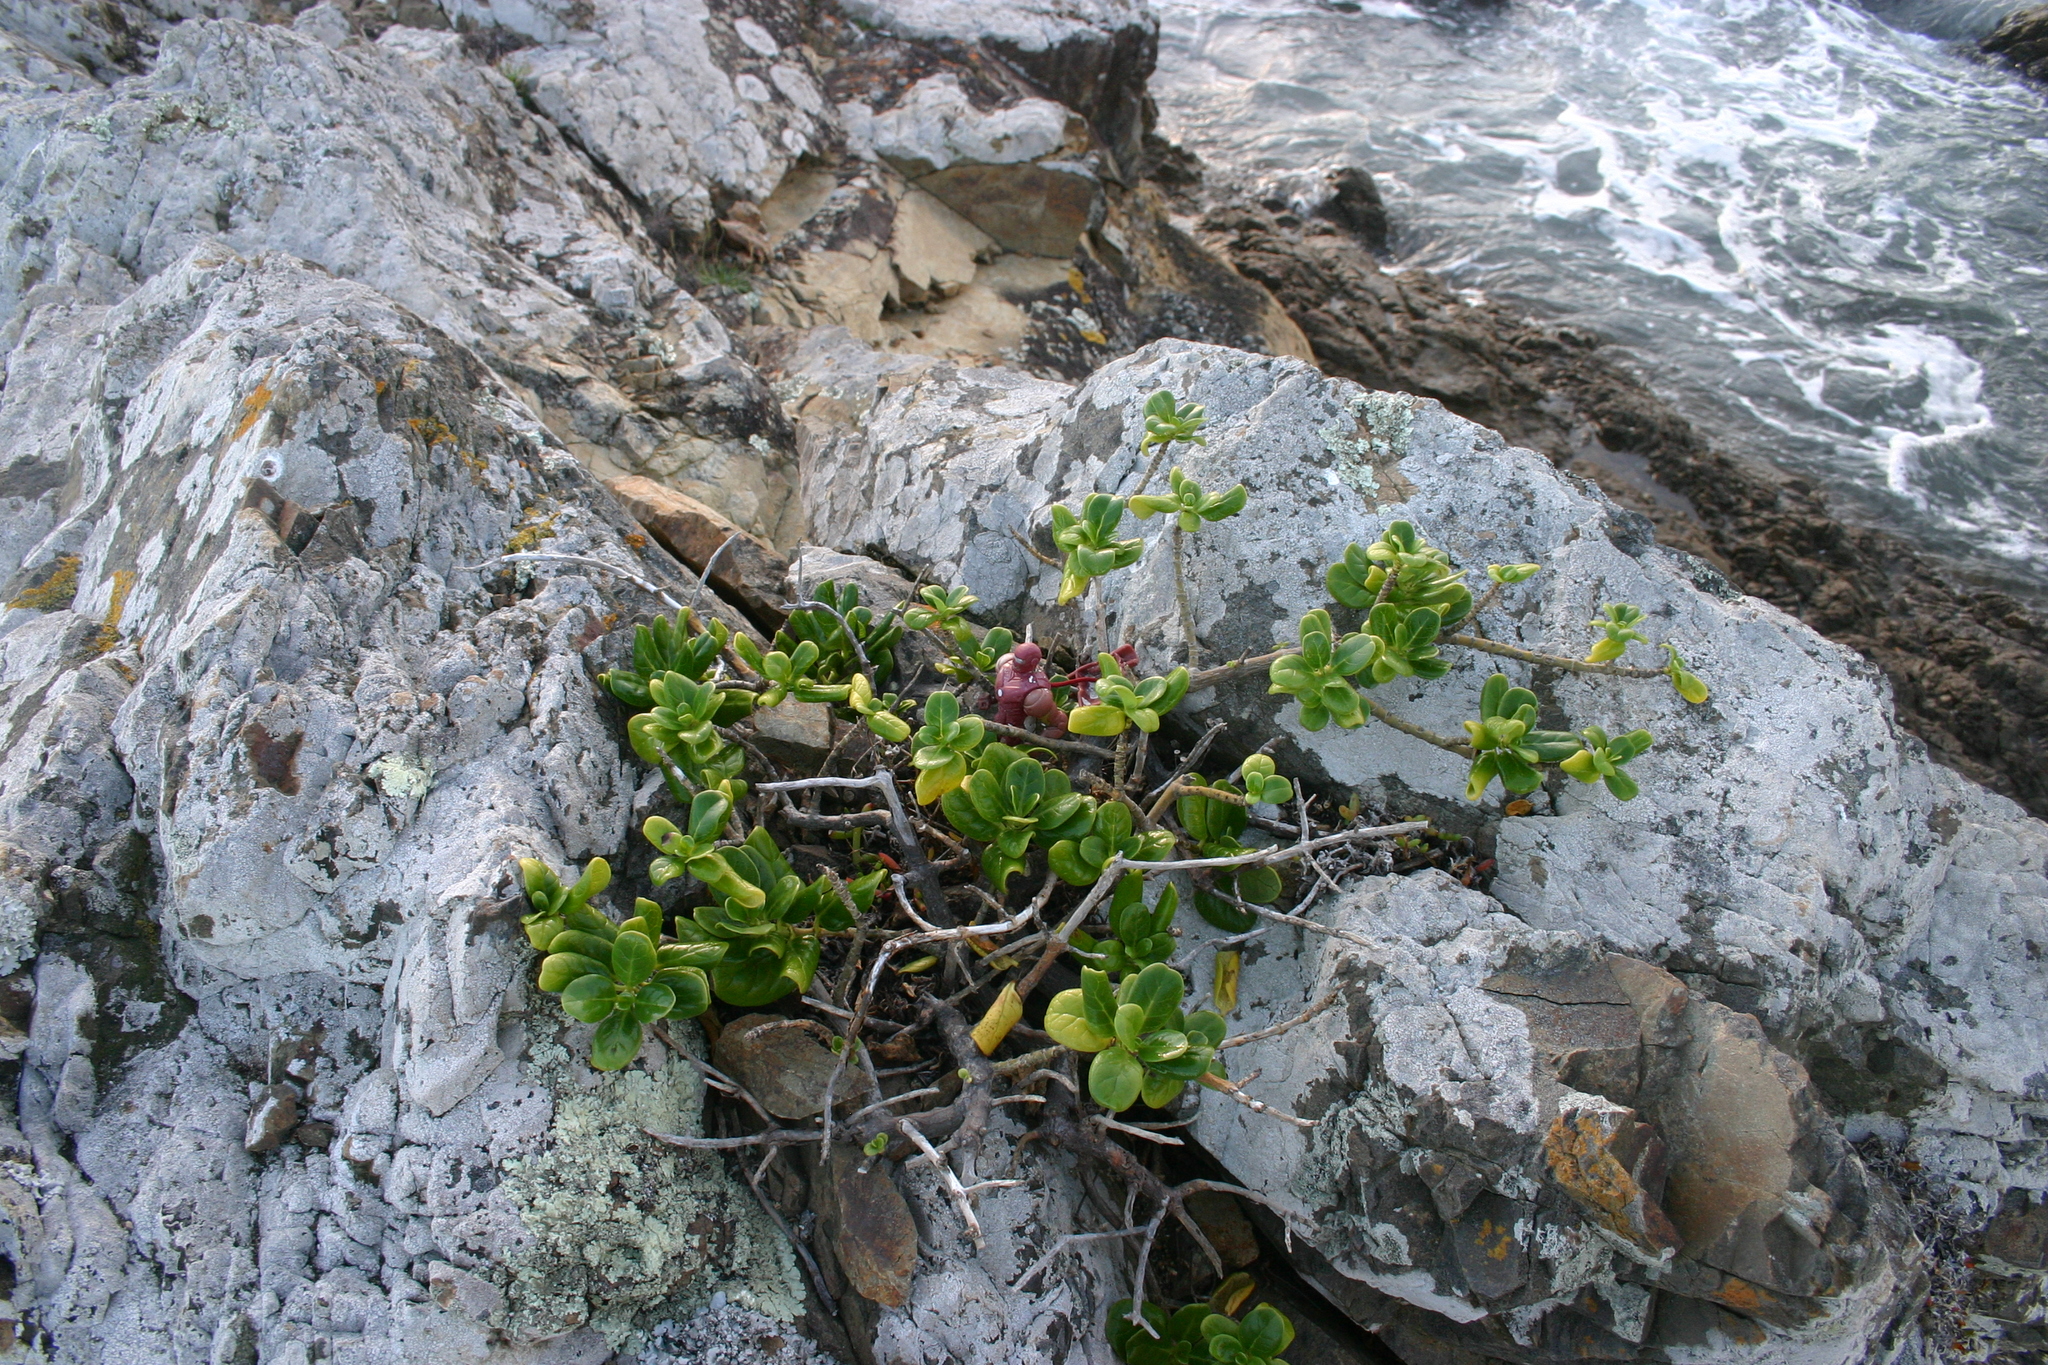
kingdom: Plantae
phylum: Tracheophyta
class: Magnoliopsida
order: Gentianales
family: Rubiaceae
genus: Coprosma
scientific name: Coprosma repens
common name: Tree bedstraw
